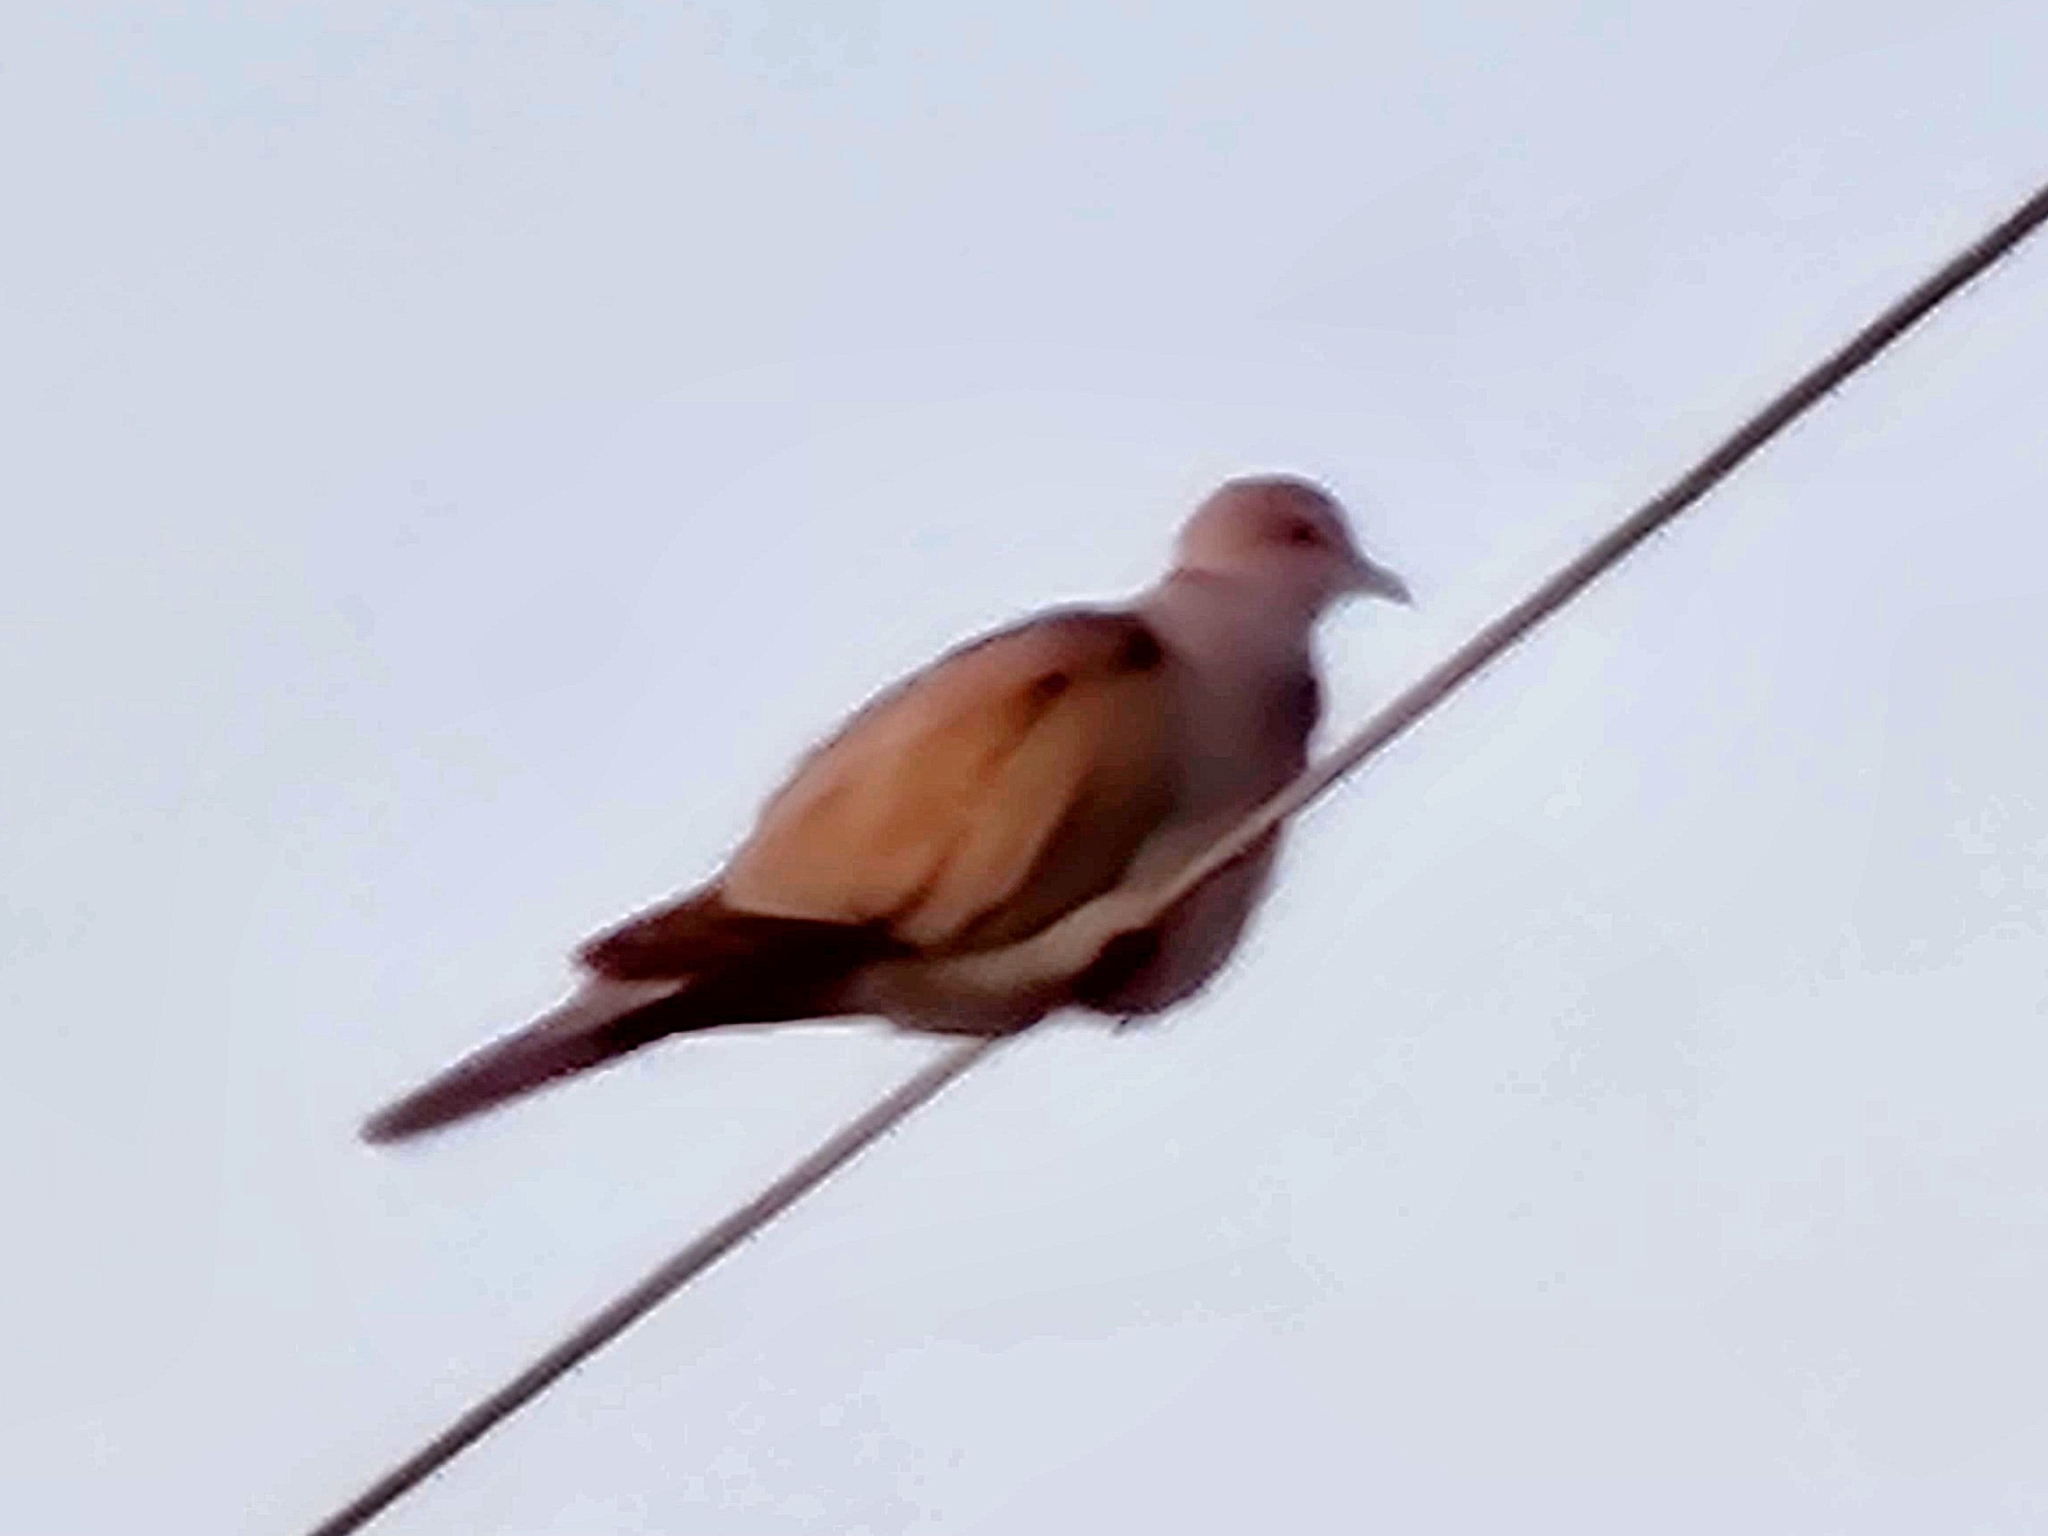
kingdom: Animalia
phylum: Chordata
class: Aves
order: Columbiformes
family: Columbidae
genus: Streptopelia
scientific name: Streptopelia decaocto
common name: Eurasian collared dove
